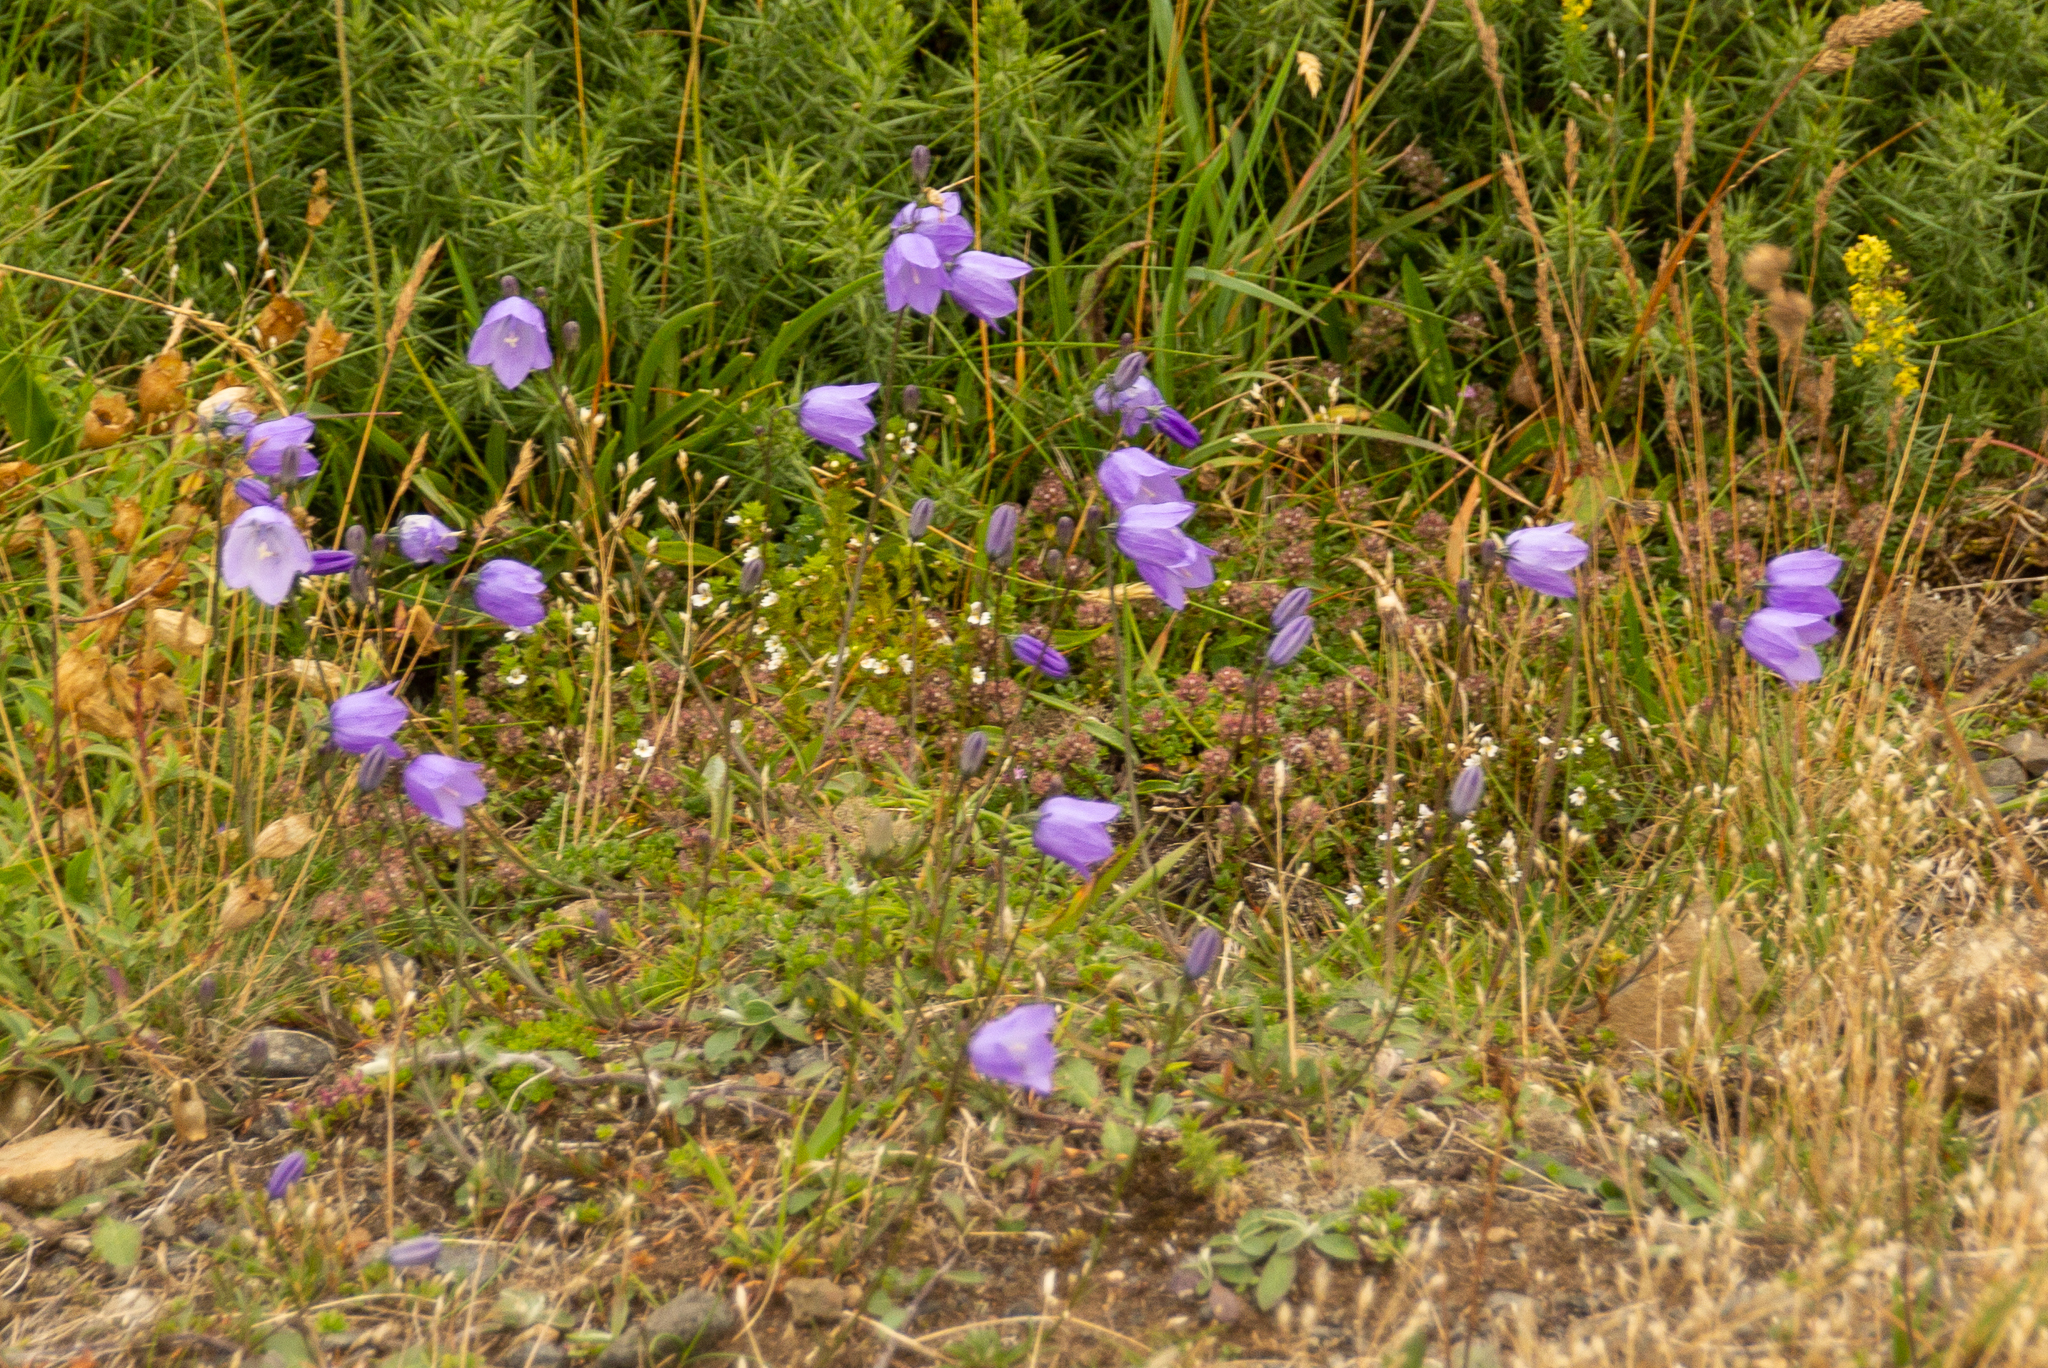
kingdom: Plantae
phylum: Tracheophyta
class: Magnoliopsida
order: Asterales
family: Campanulaceae
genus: Campanula
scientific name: Campanula rotundifolia
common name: Harebell
